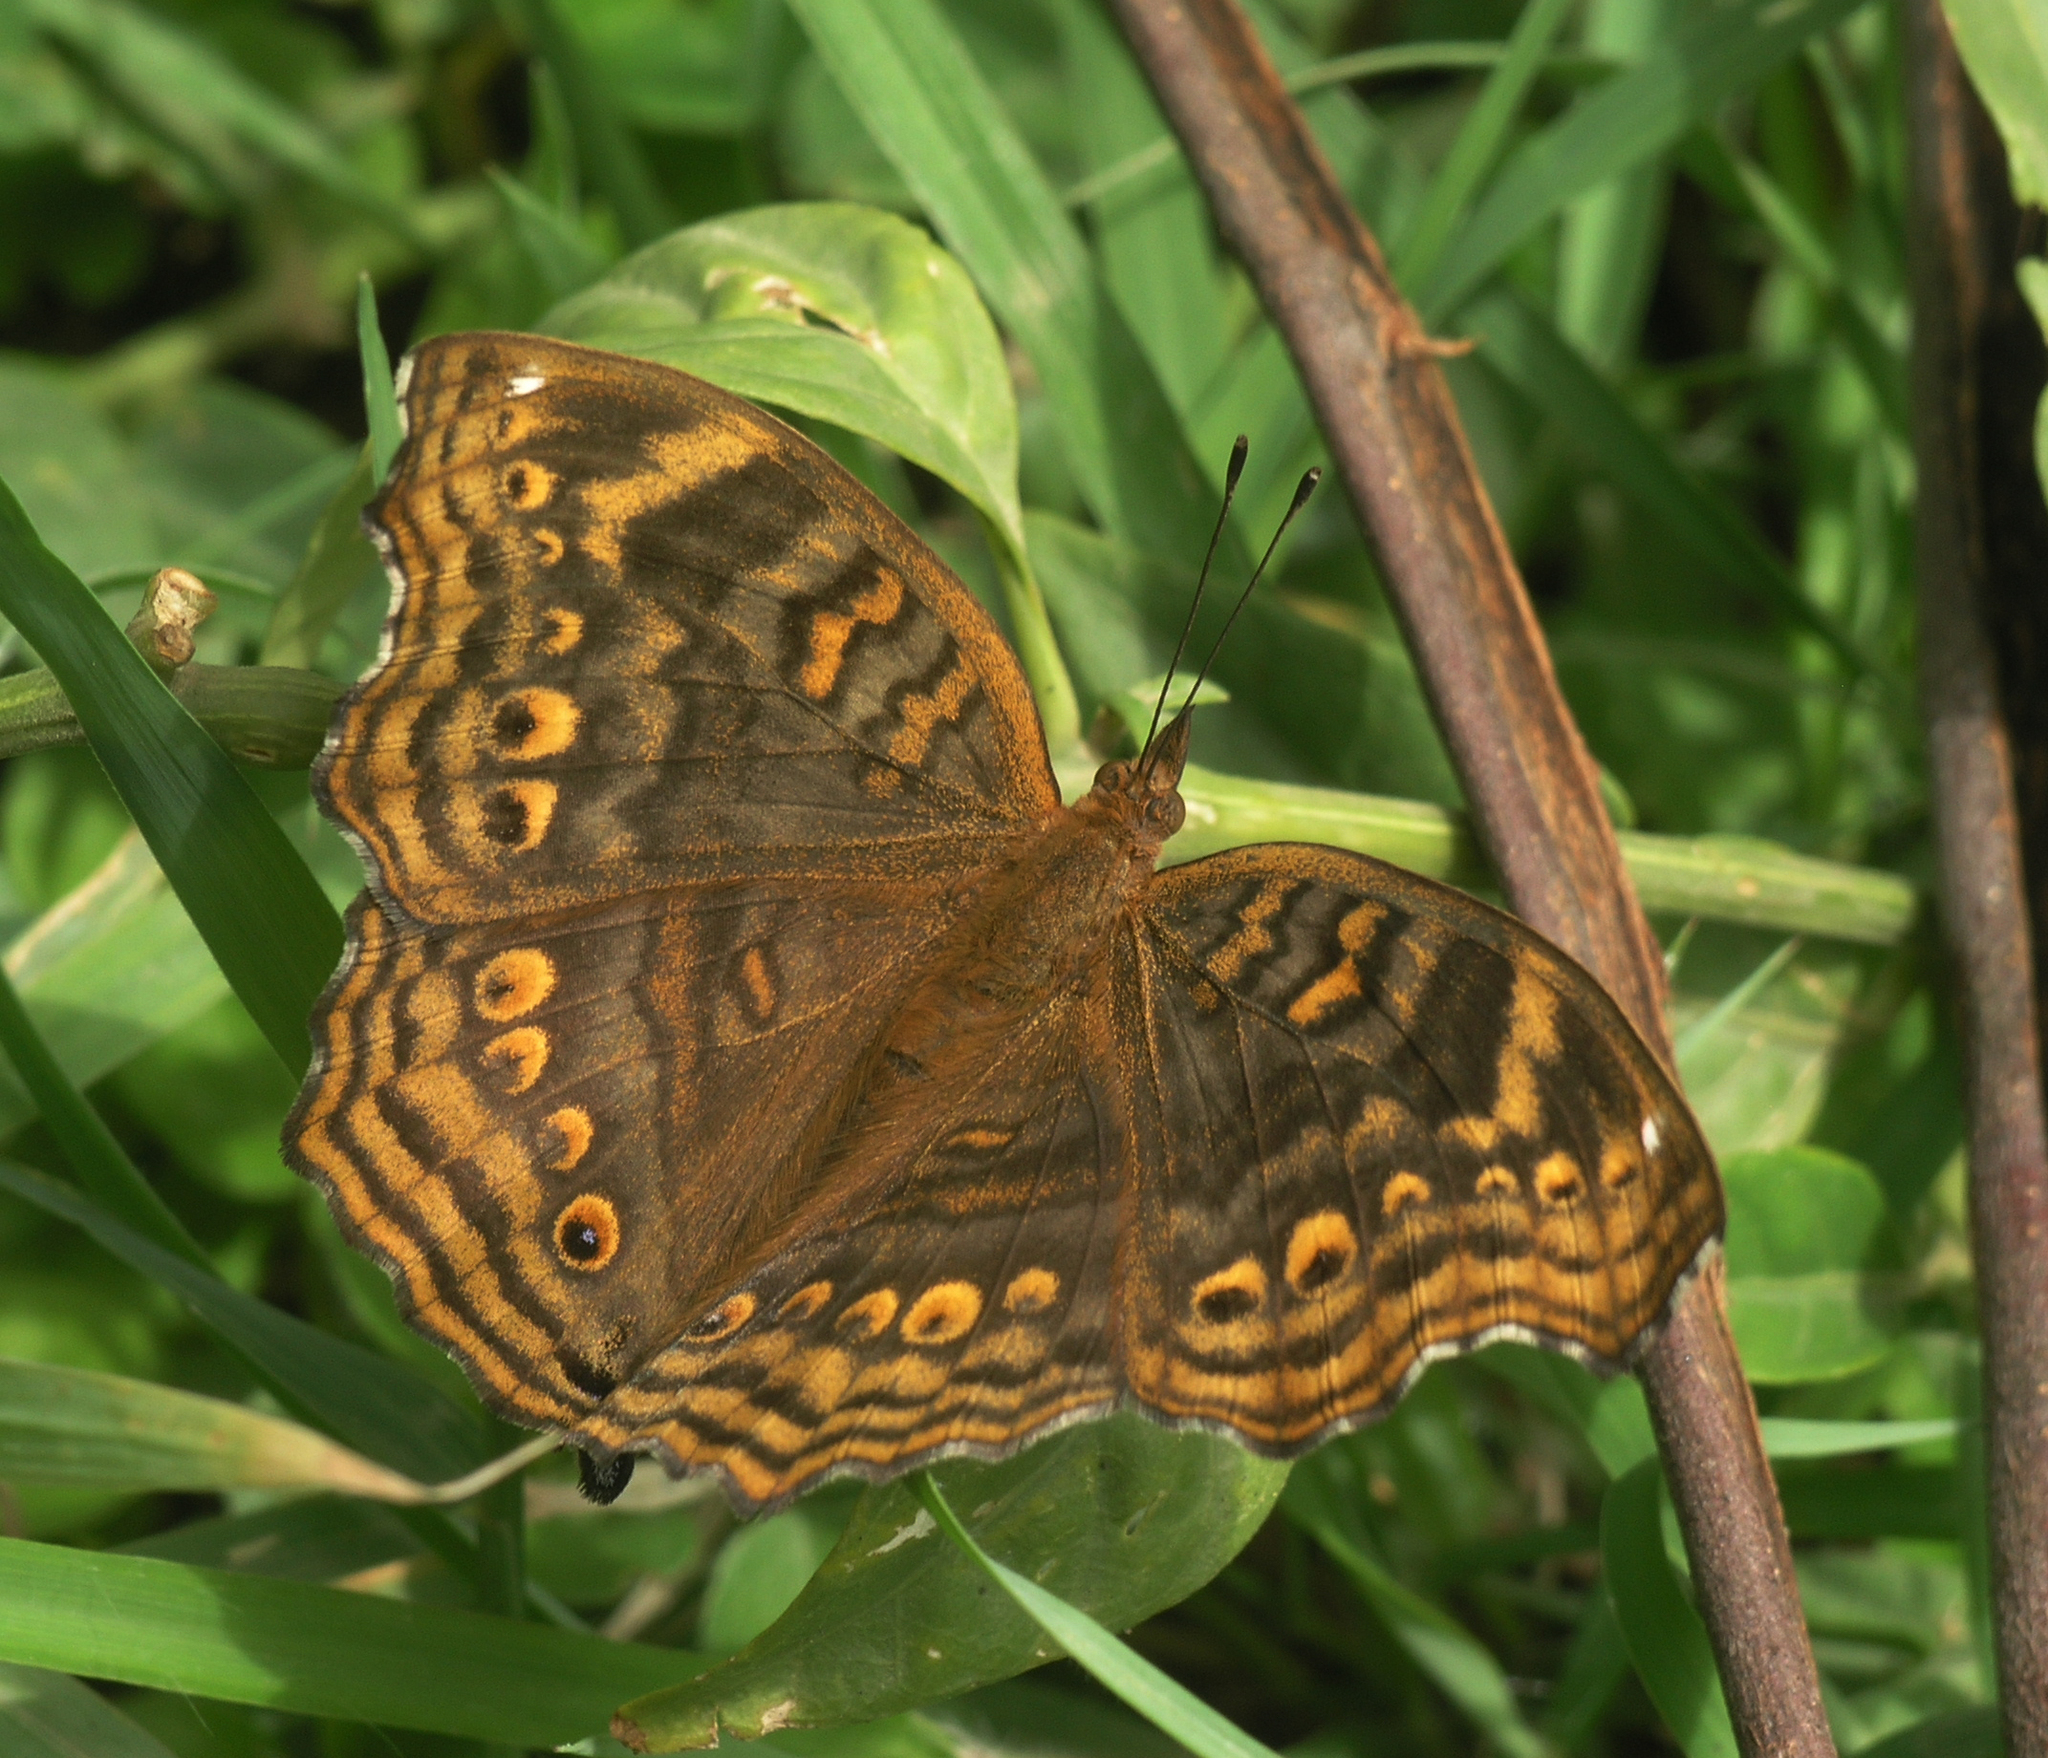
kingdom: Animalia
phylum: Arthropoda
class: Insecta
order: Lepidoptera
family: Nymphalidae
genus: Junonia
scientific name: Junonia chorimene
